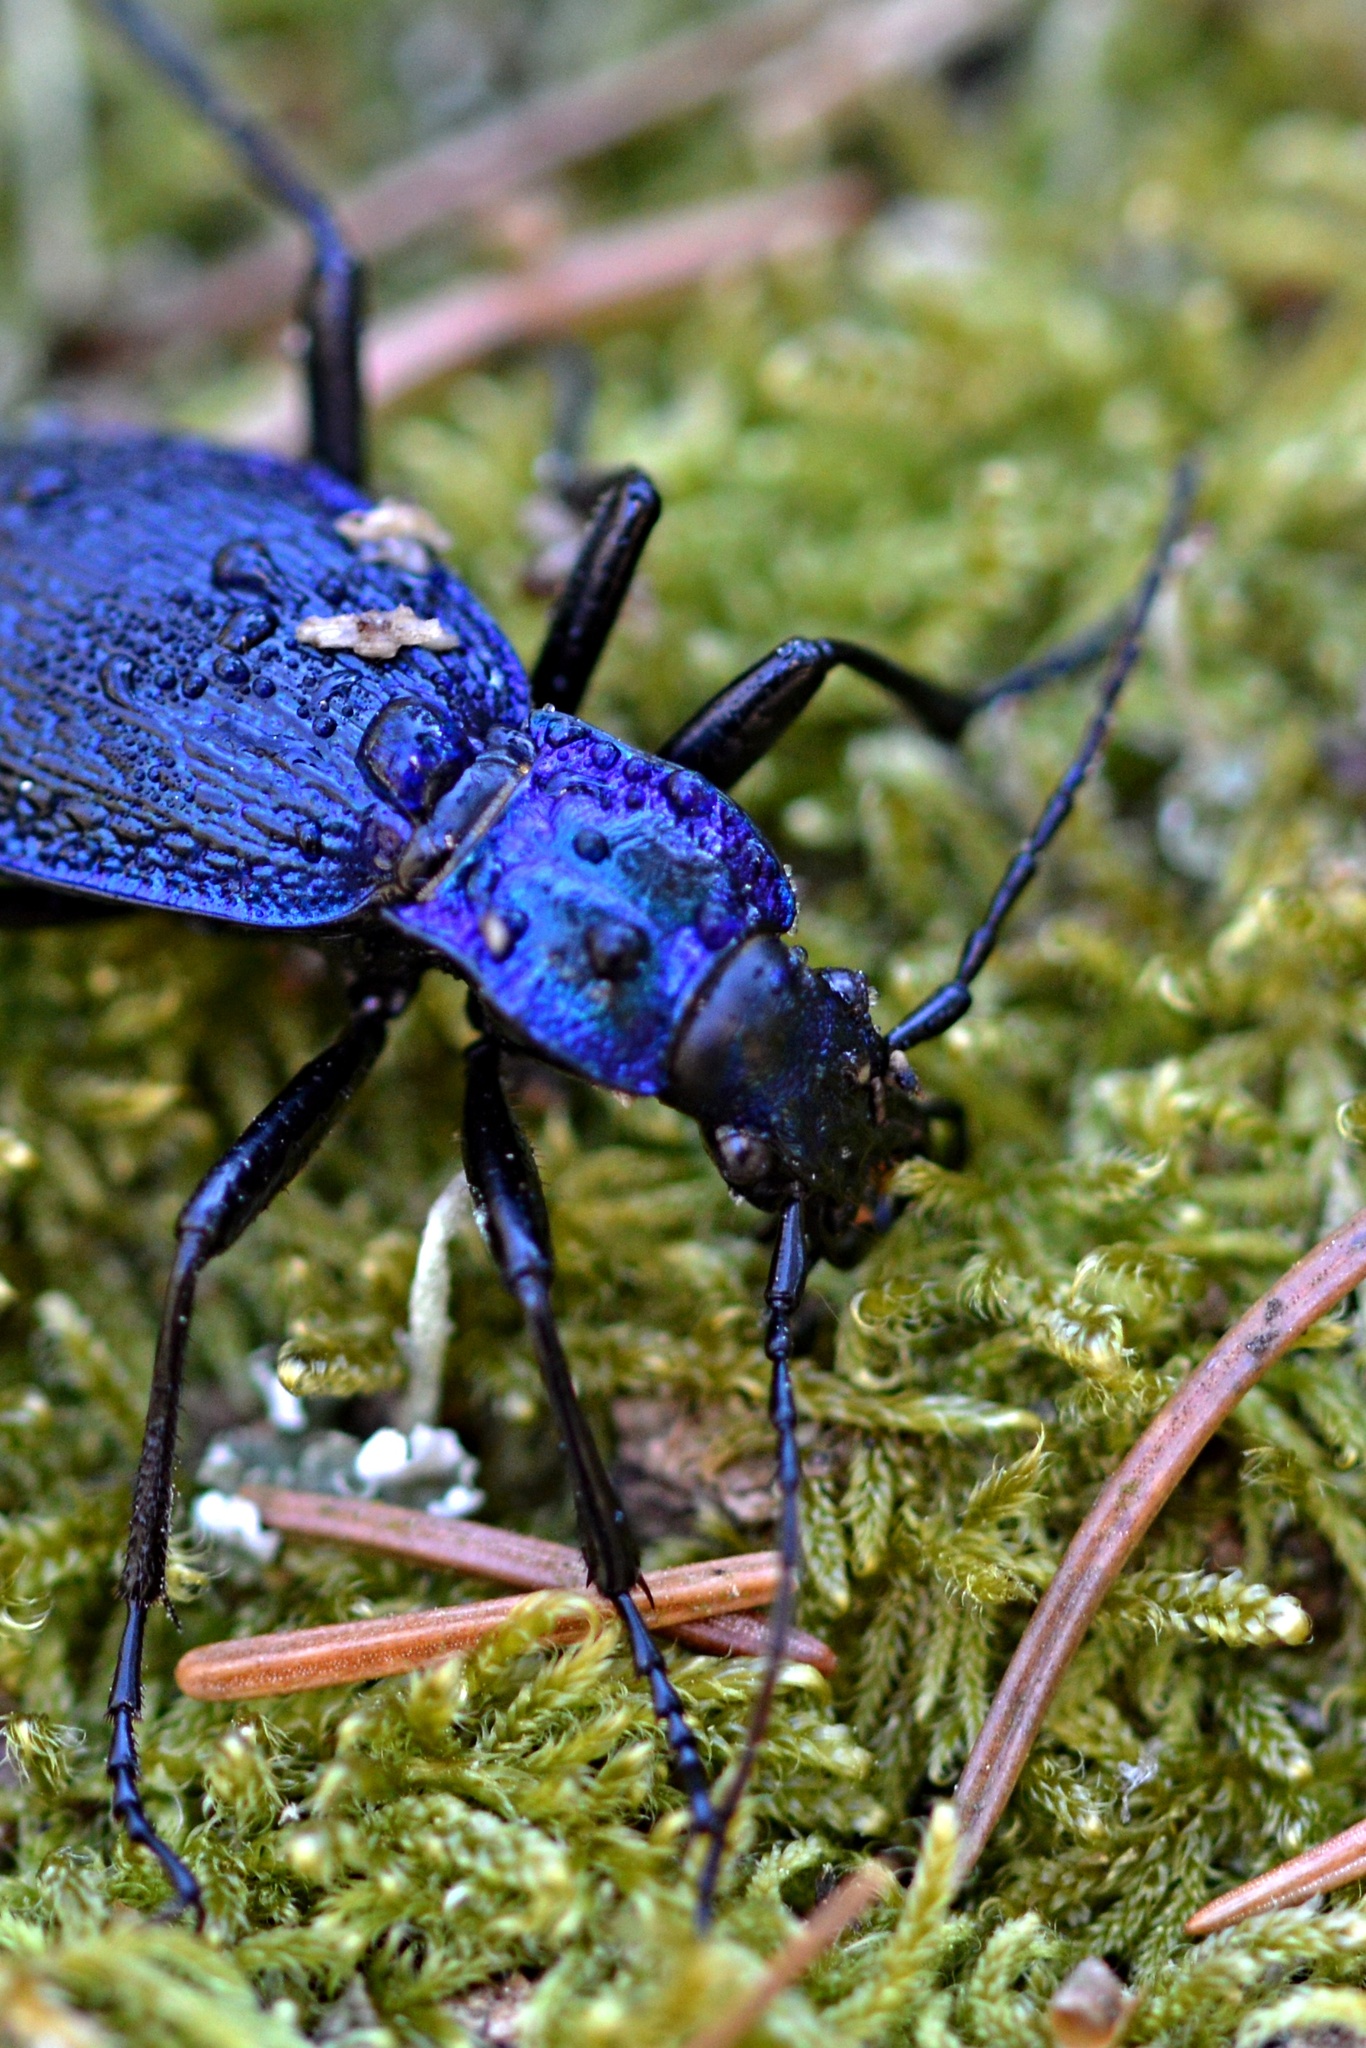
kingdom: Animalia
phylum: Arthropoda
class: Insecta
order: Coleoptera
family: Carabidae
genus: Carabus
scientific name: Carabus intricatus
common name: Blue ground beetle
